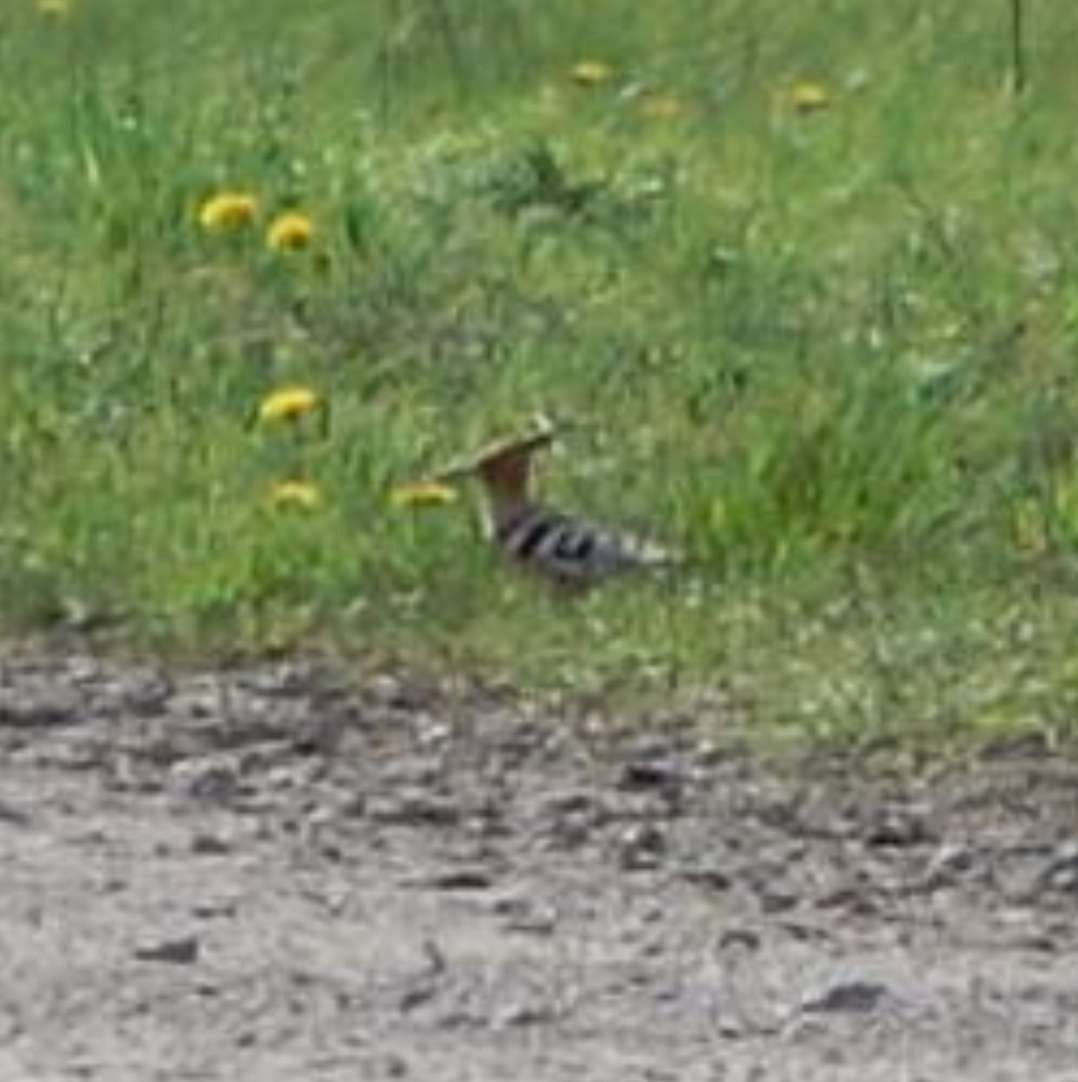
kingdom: Animalia
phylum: Chordata
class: Aves
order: Bucerotiformes
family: Upupidae
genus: Upupa
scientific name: Upupa epops
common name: Eurasian hoopoe
